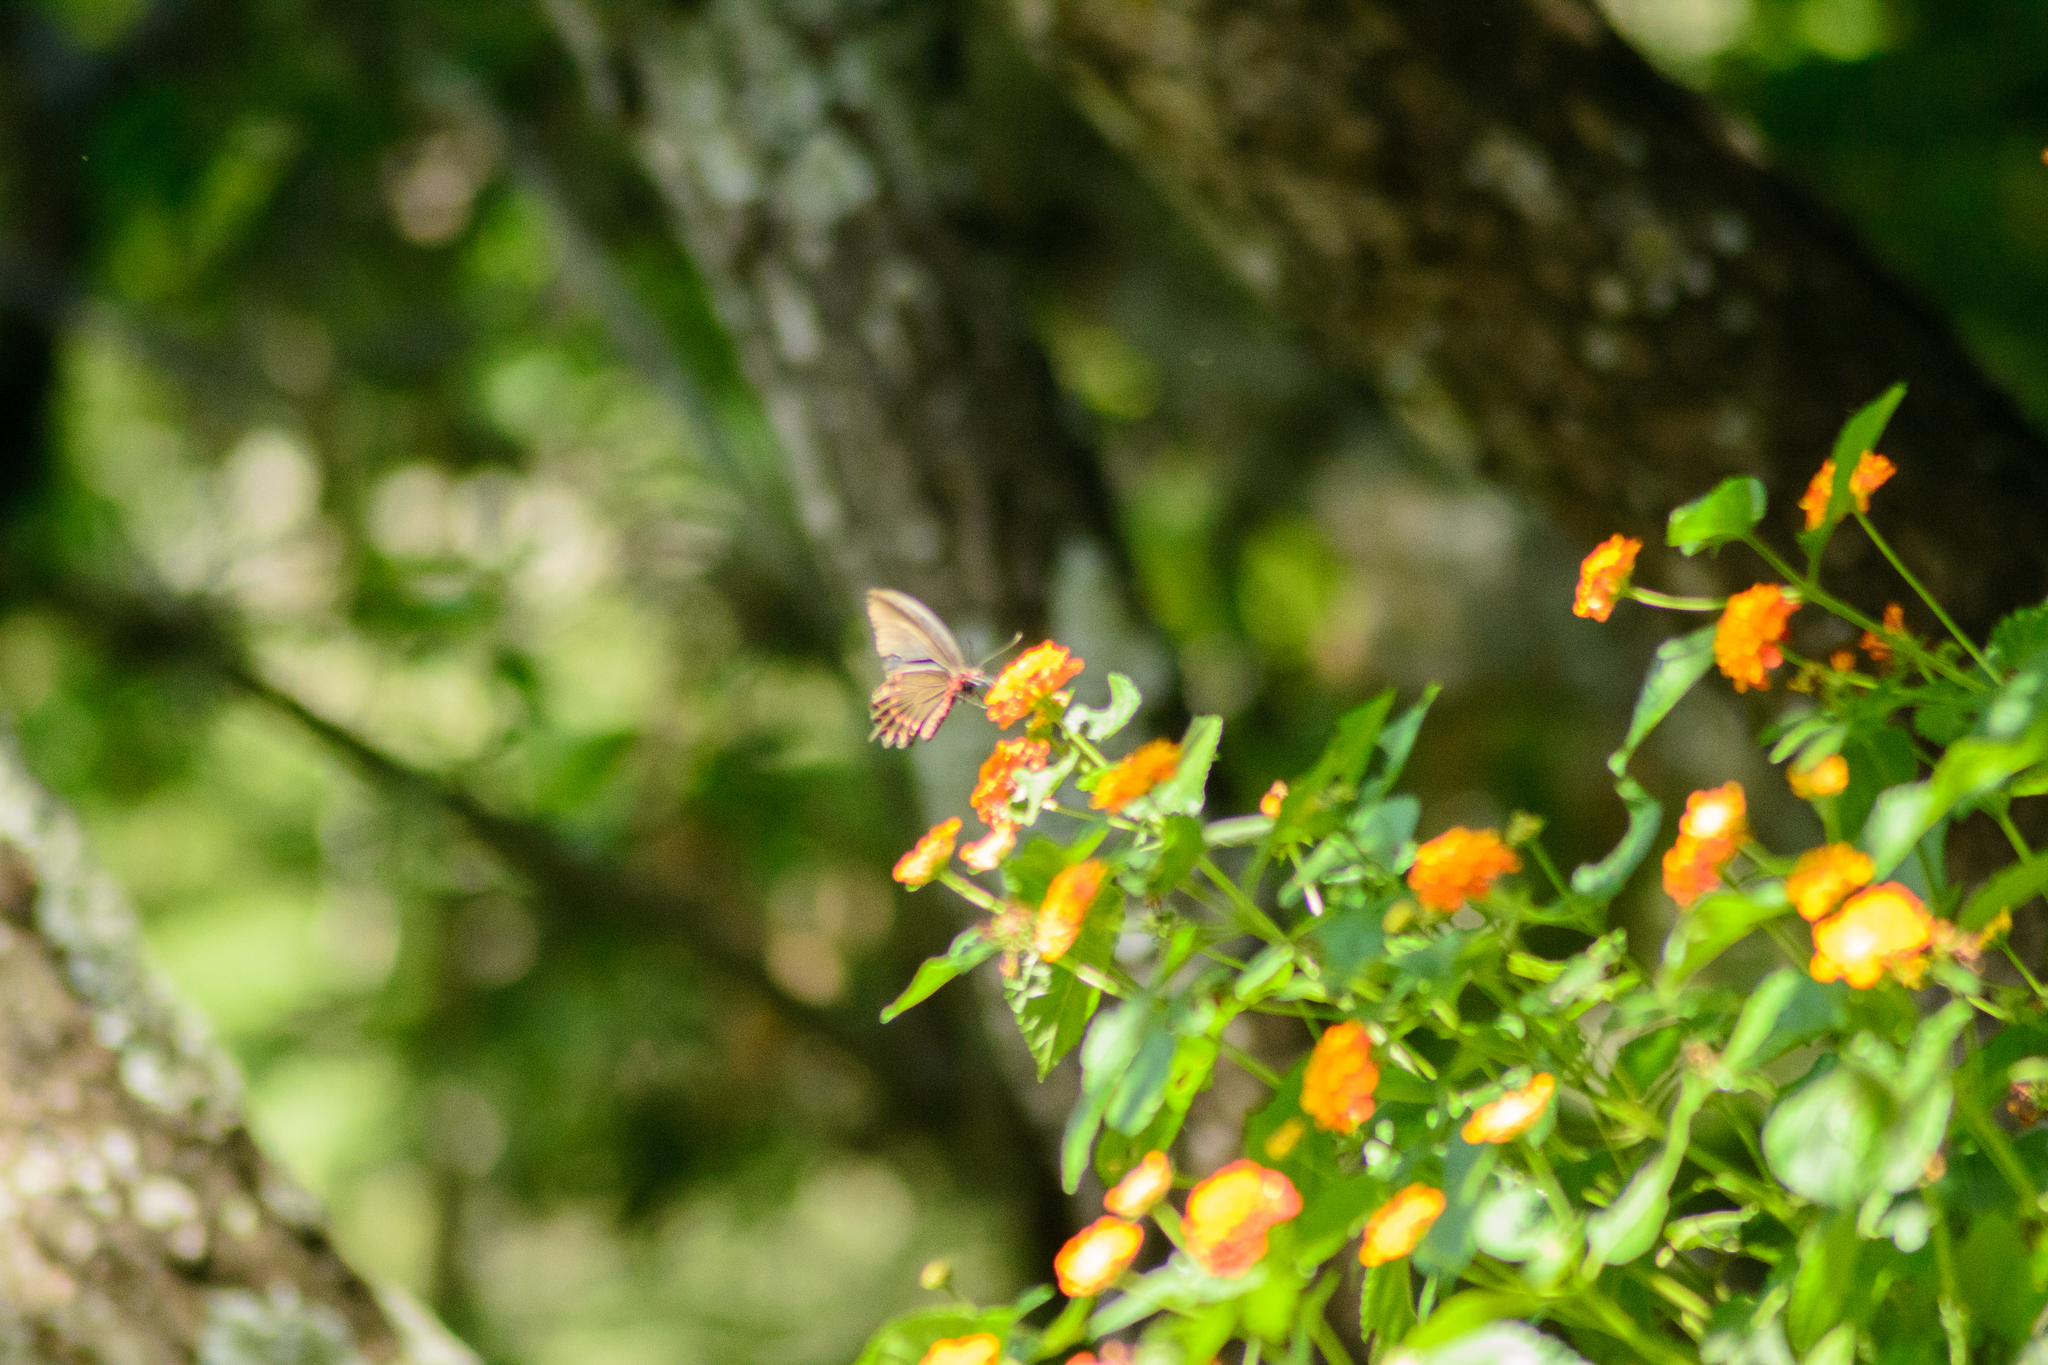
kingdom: Animalia
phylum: Arthropoda
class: Insecta
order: Lepidoptera
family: Papilionidae
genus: Parides
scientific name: Parides photinus
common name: Pink-spotted cattleheart
